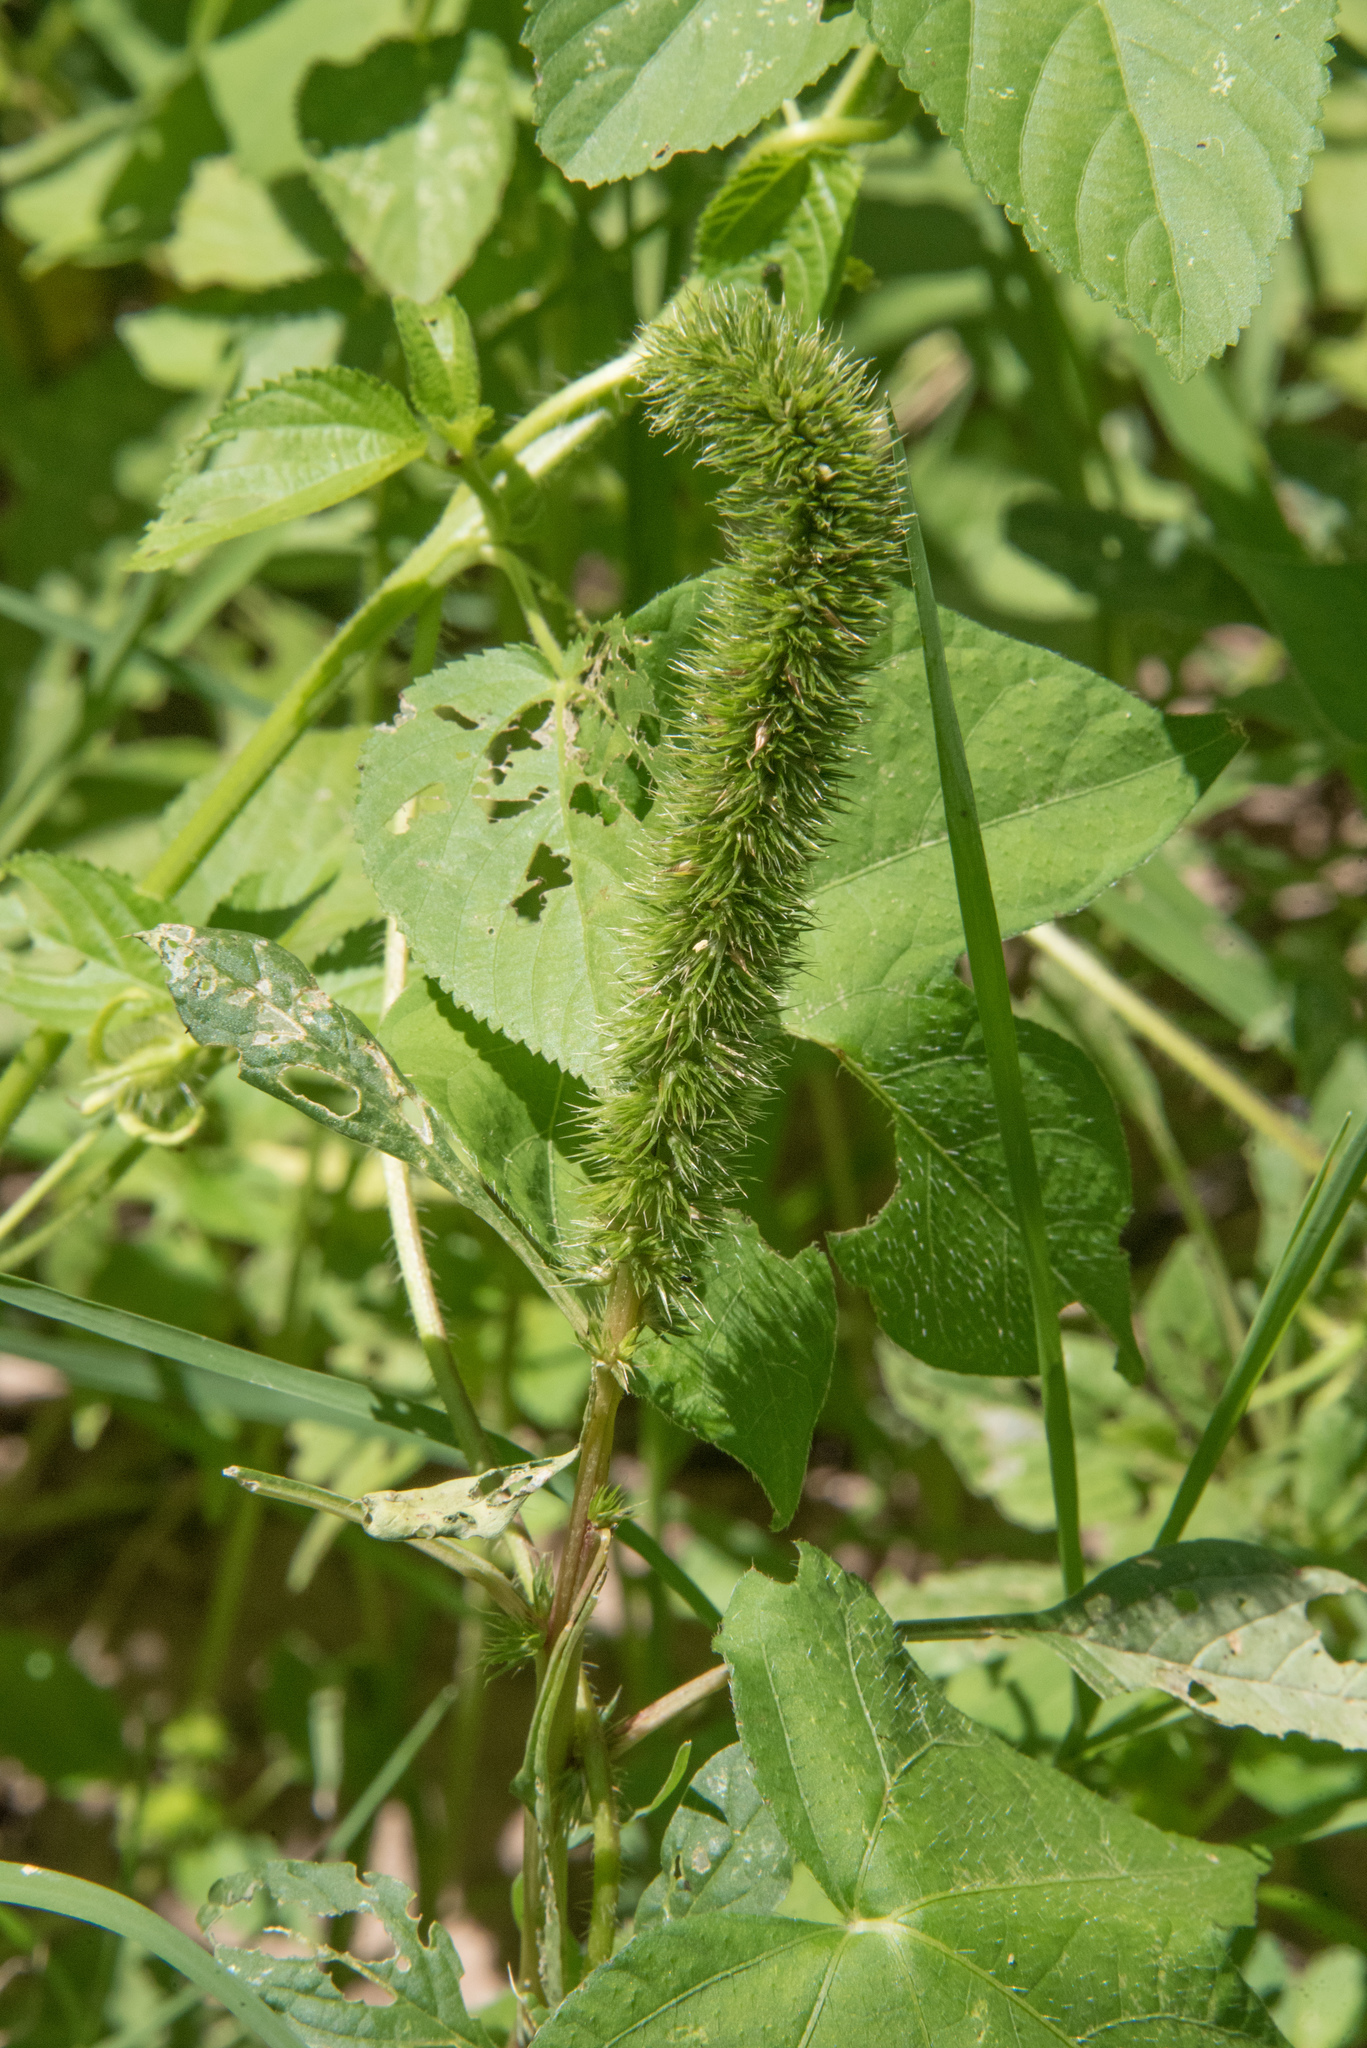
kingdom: Plantae
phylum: Tracheophyta
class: Magnoliopsida
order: Caryophyllales
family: Amaranthaceae
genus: Amaranthus
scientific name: Amaranthus palmeri
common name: Dioecious amaranth
